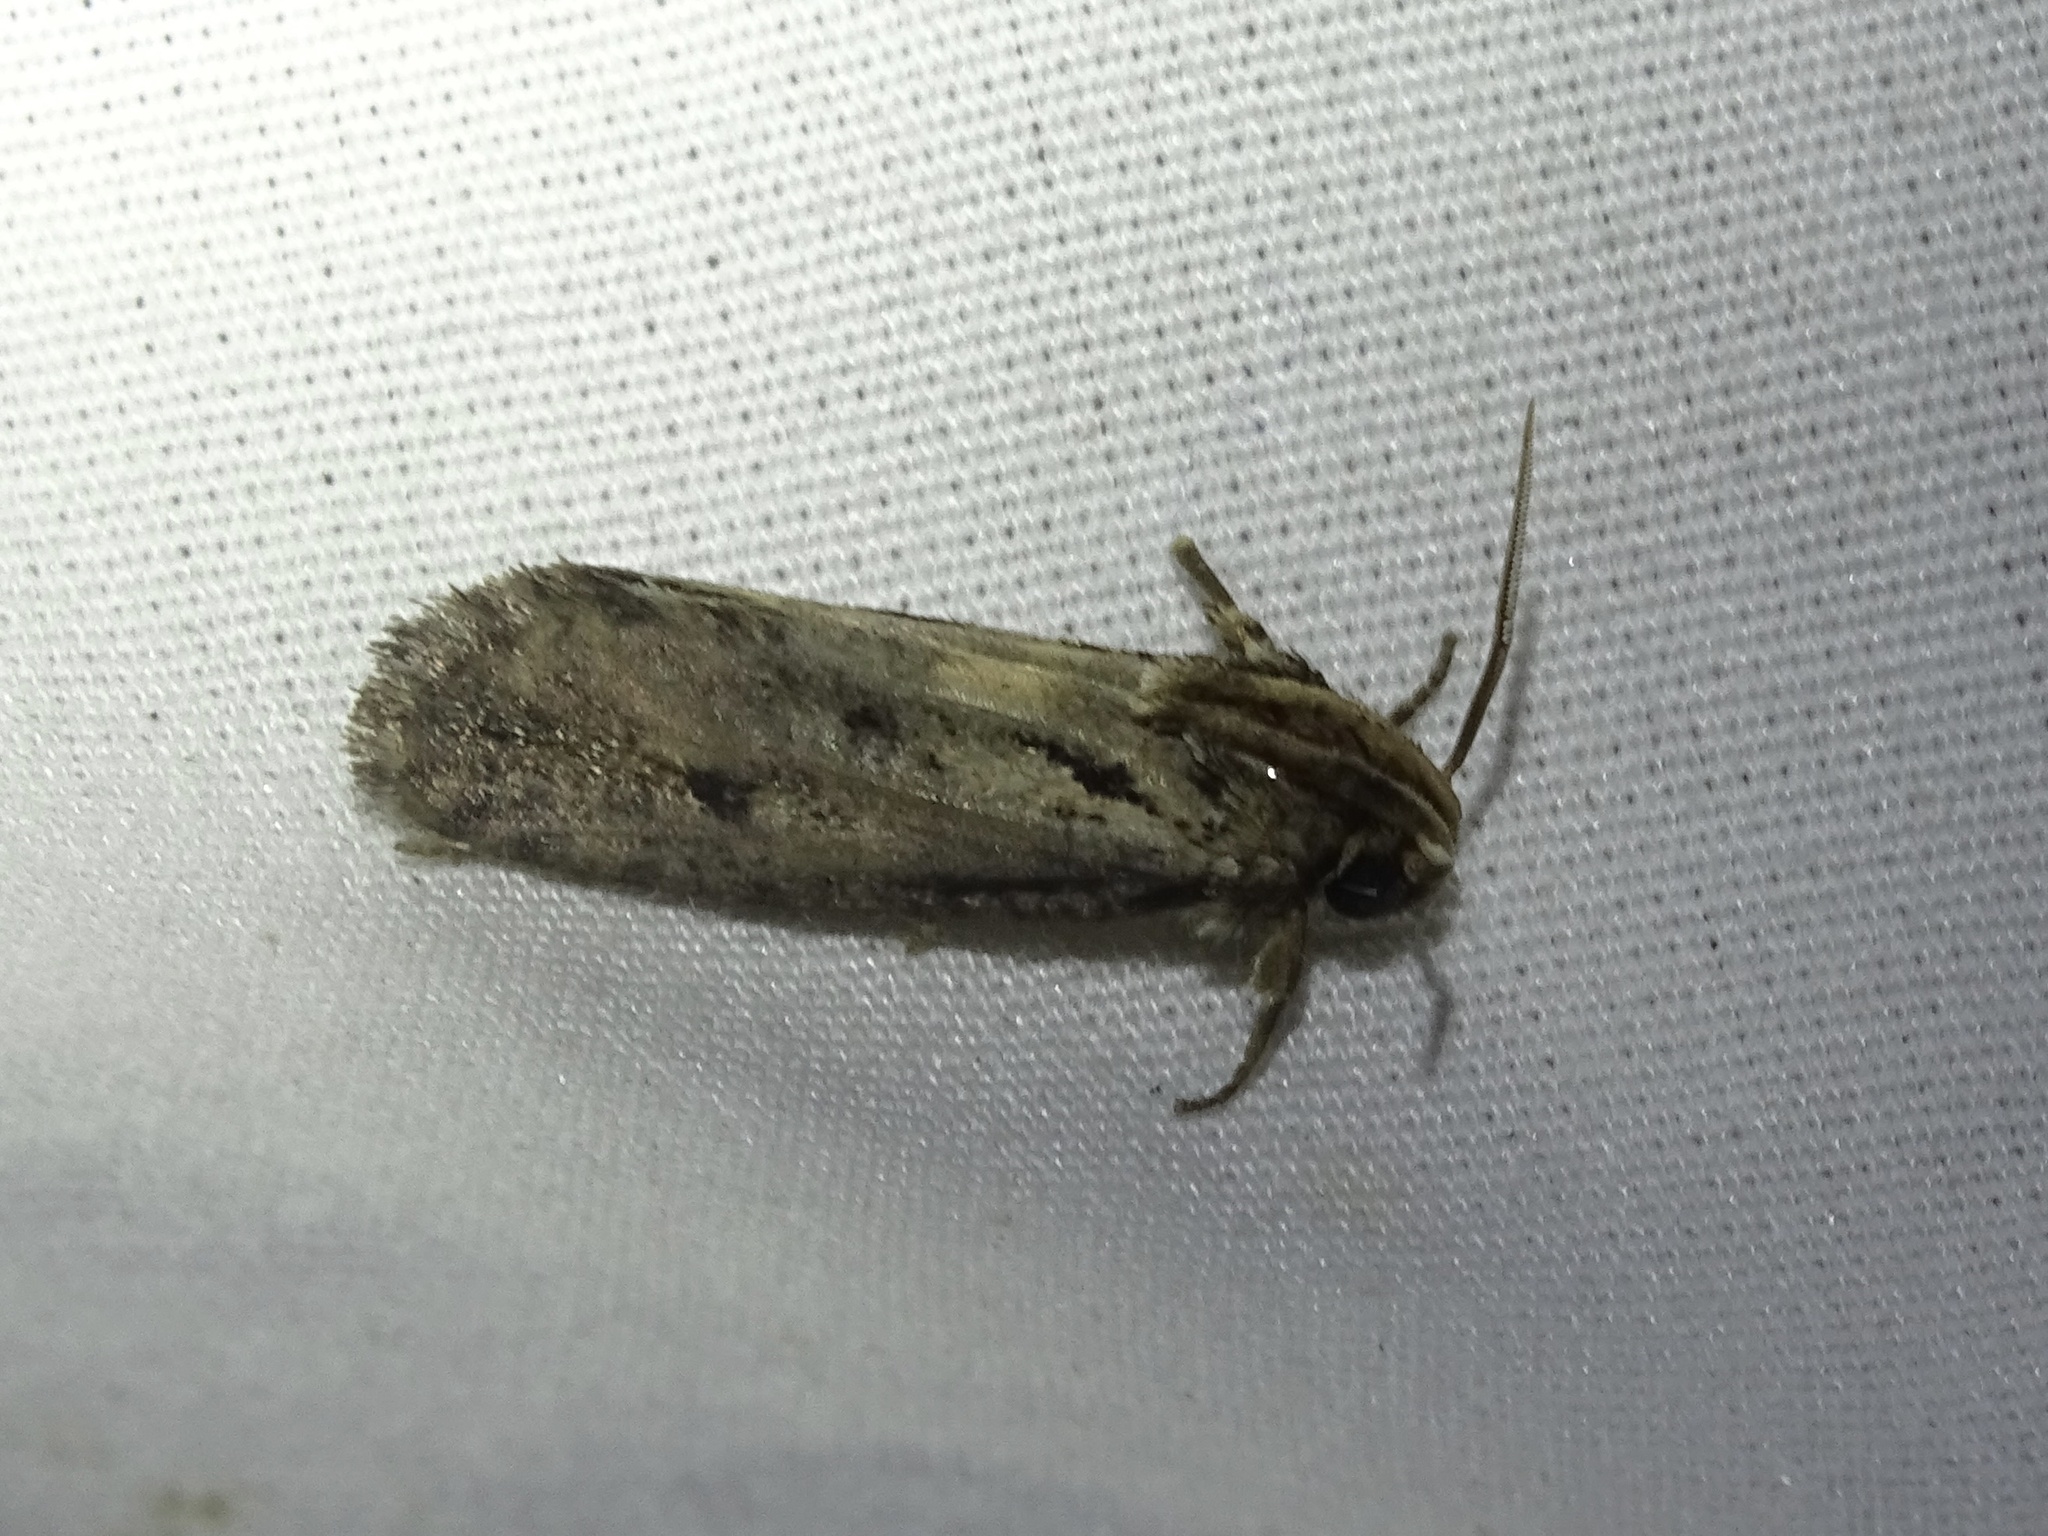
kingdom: Animalia
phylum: Arthropoda
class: Insecta
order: Lepidoptera
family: Tineidae
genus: Acrolophus
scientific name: Acrolophus popeanella
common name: Clemens' grass tubeworm moth
